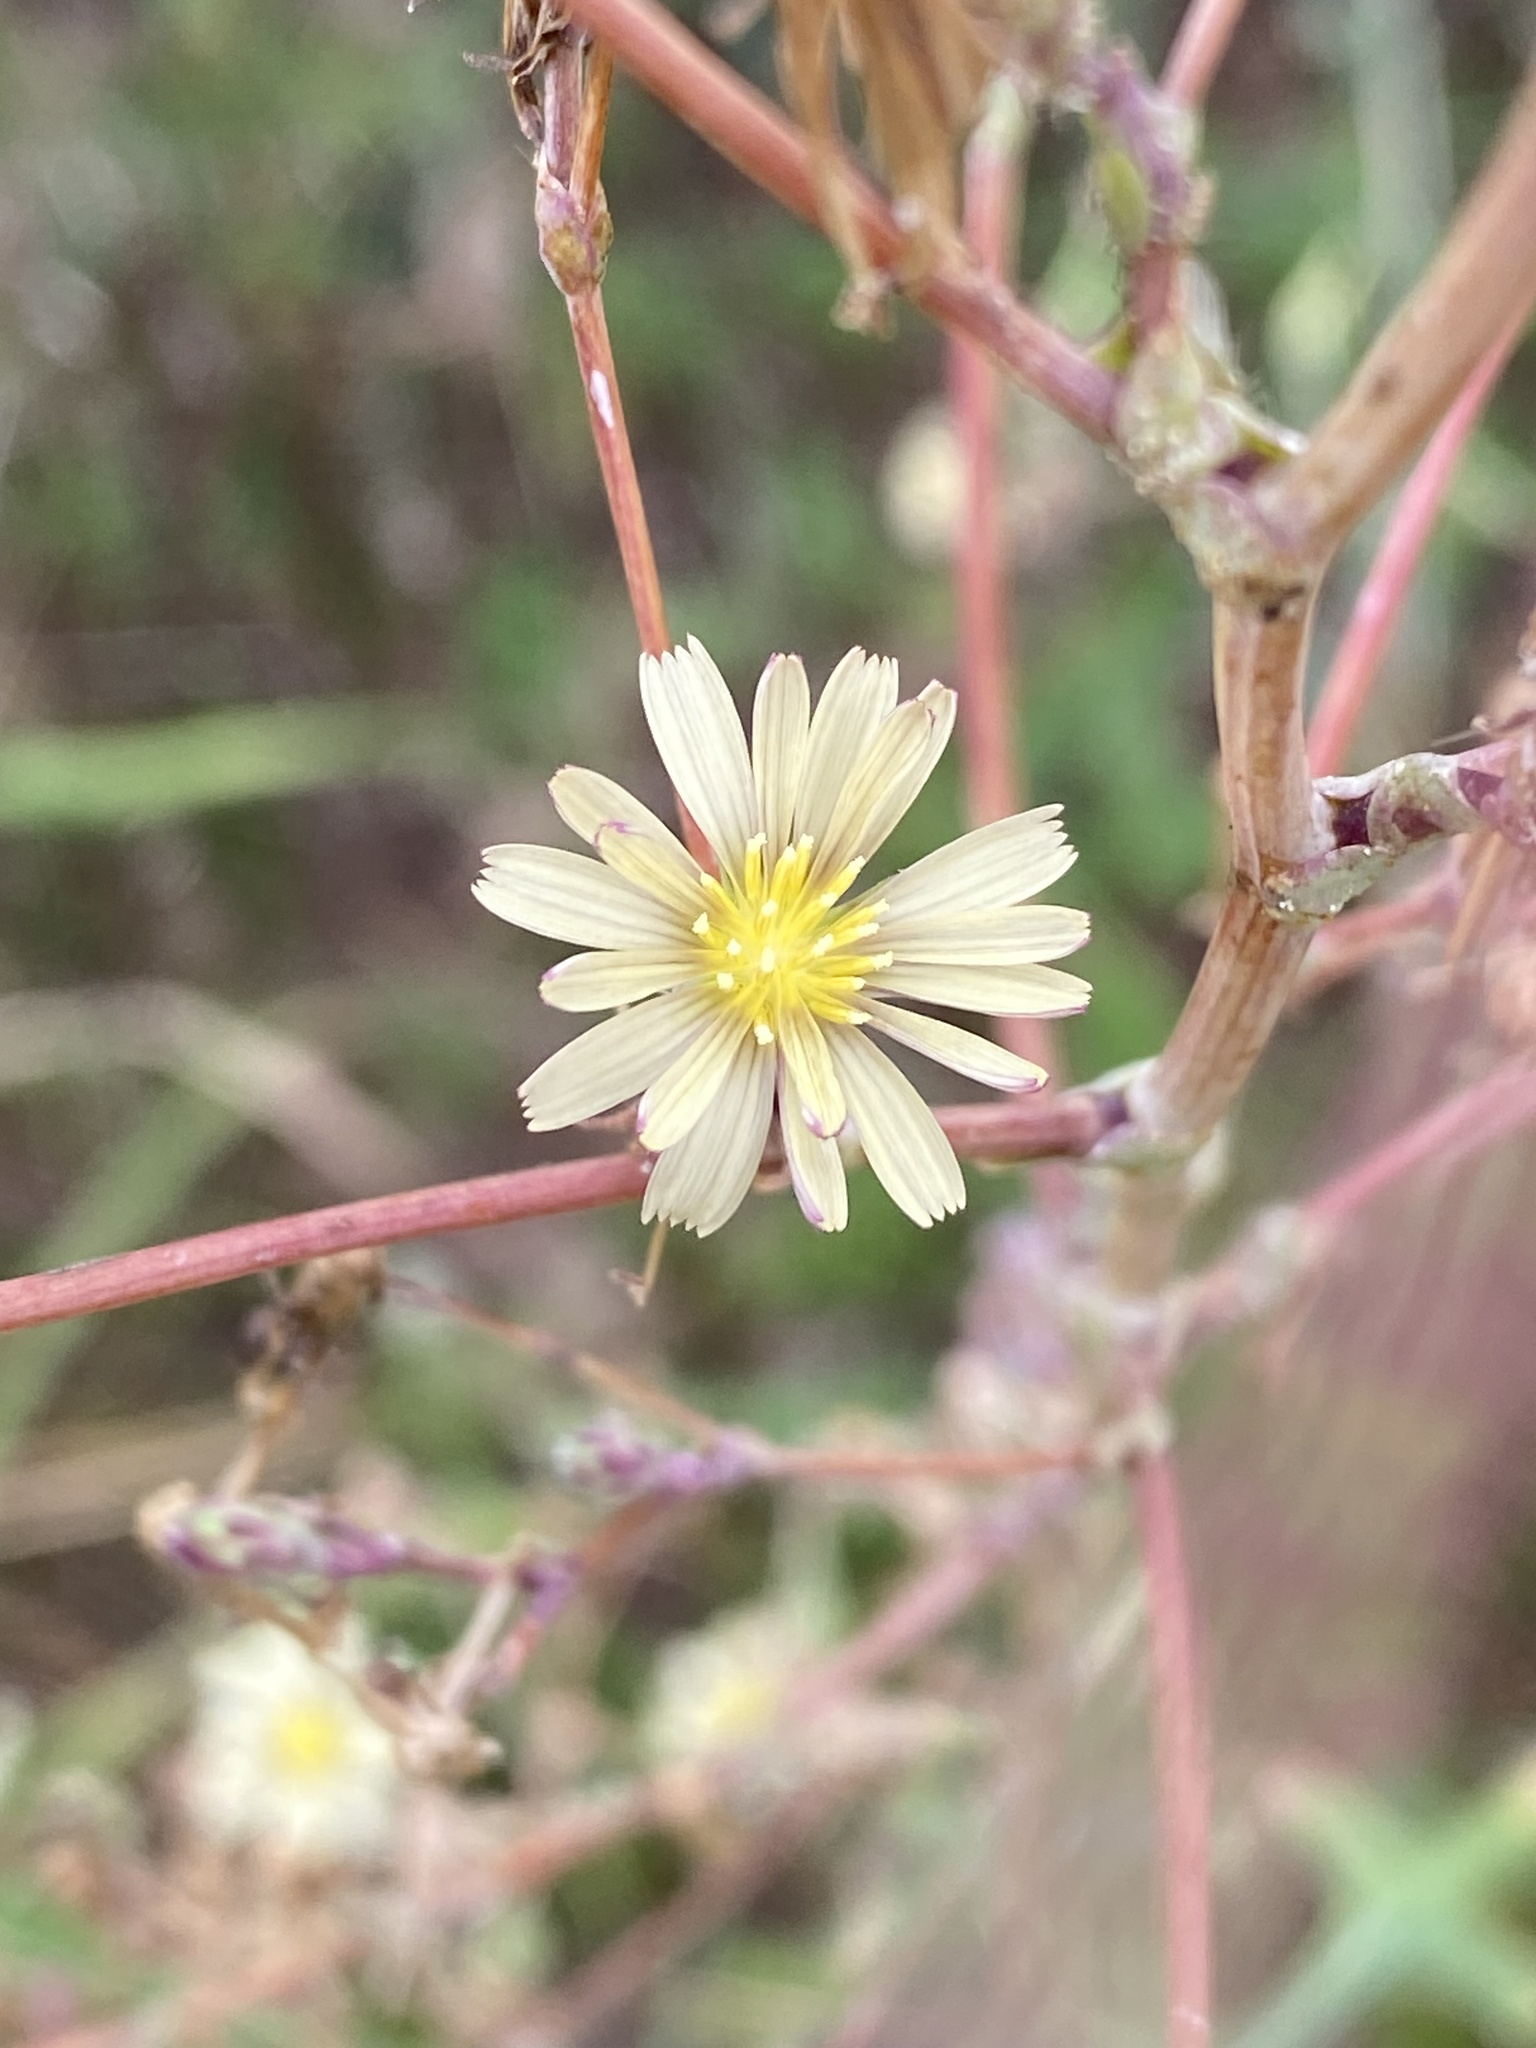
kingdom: Plantae
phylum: Tracheophyta
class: Magnoliopsida
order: Asterales
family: Asteraceae
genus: Lactuca
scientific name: Lactuca saligna
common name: Wild lettuce
